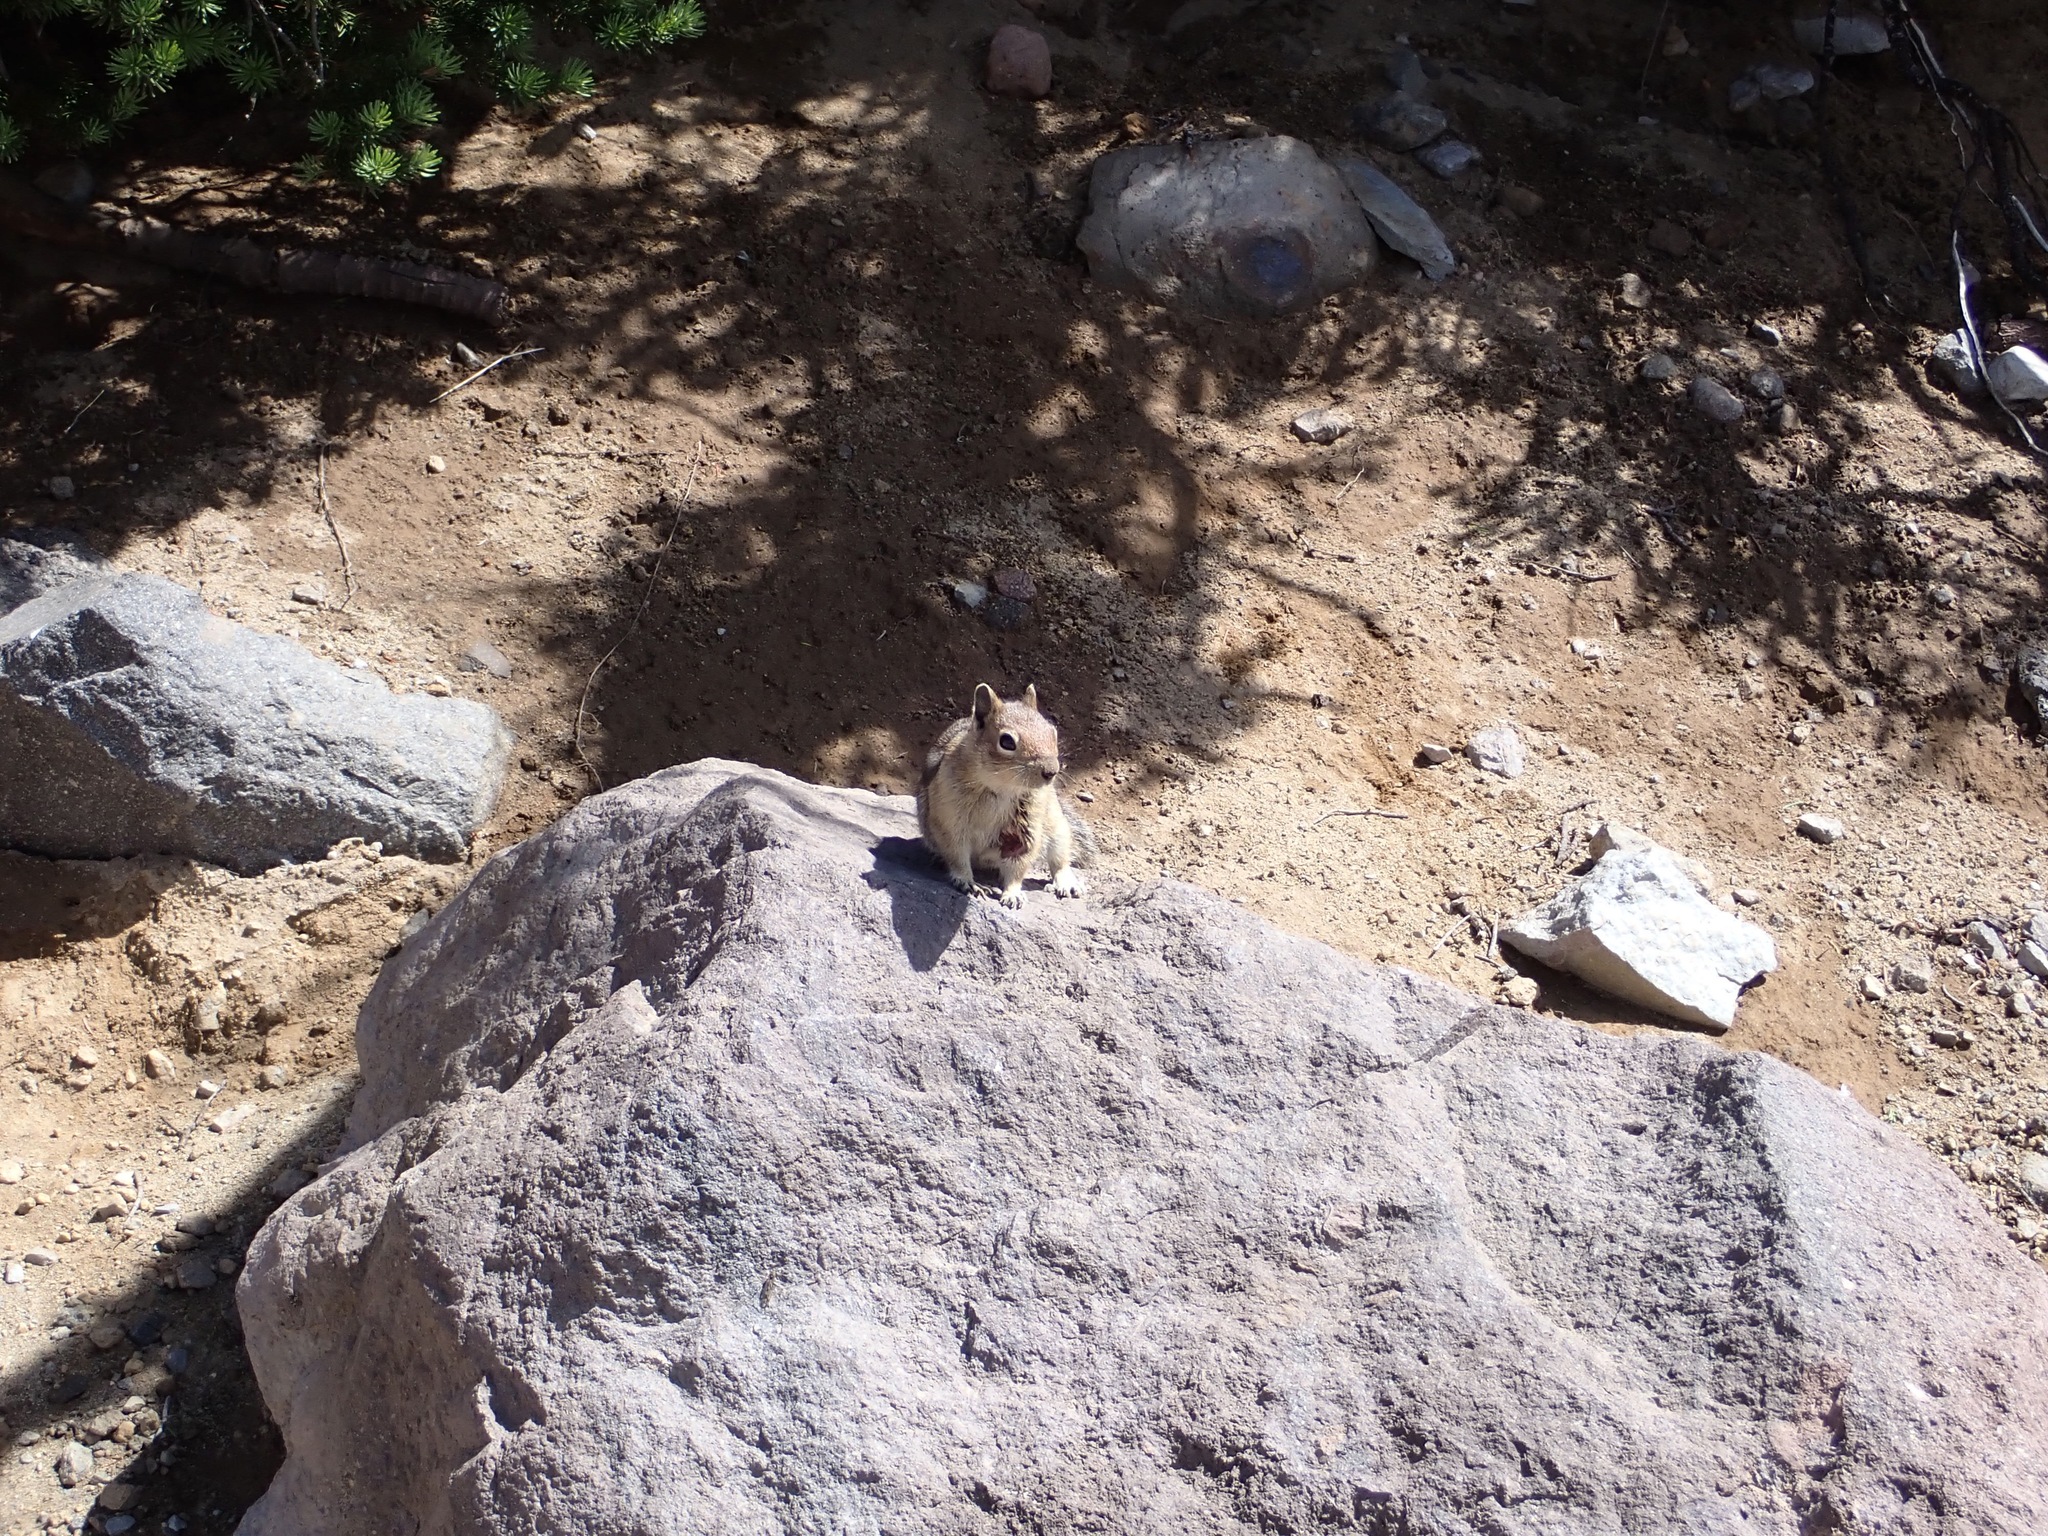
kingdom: Animalia
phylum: Chordata
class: Mammalia
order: Rodentia
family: Sciuridae
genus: Callospermophilus
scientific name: Callospermophilus saturatus
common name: Cascade golden-mantled ground squirrel
